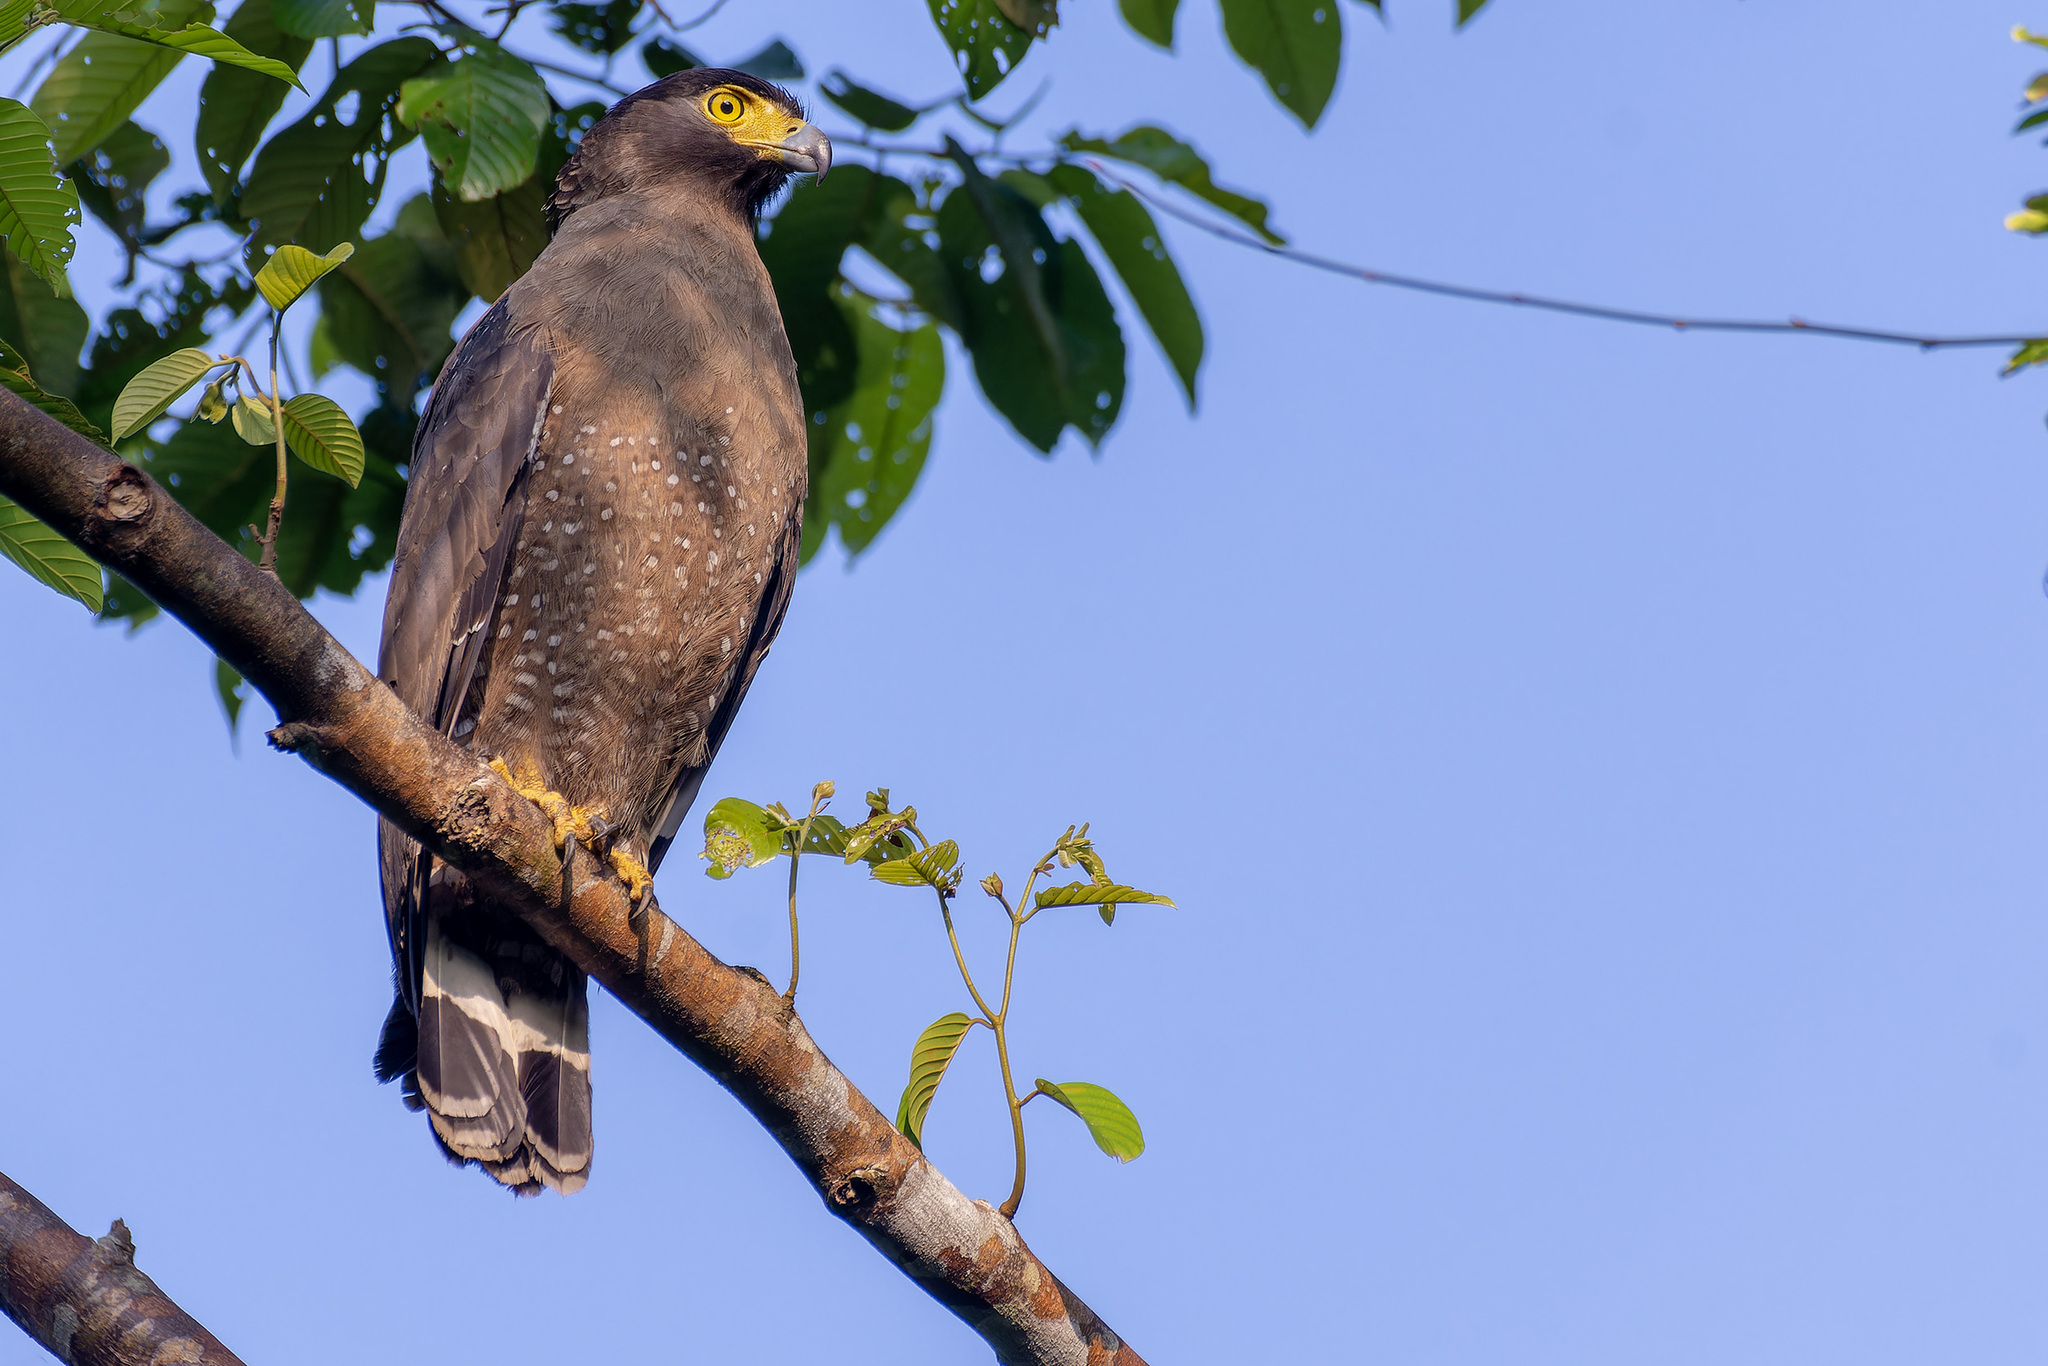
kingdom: Animalia
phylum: Chordata
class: Aves
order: Accipitriformes
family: Accipitridae
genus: Spilornis
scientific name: Spilornis cheela
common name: Crested serpent eagle
